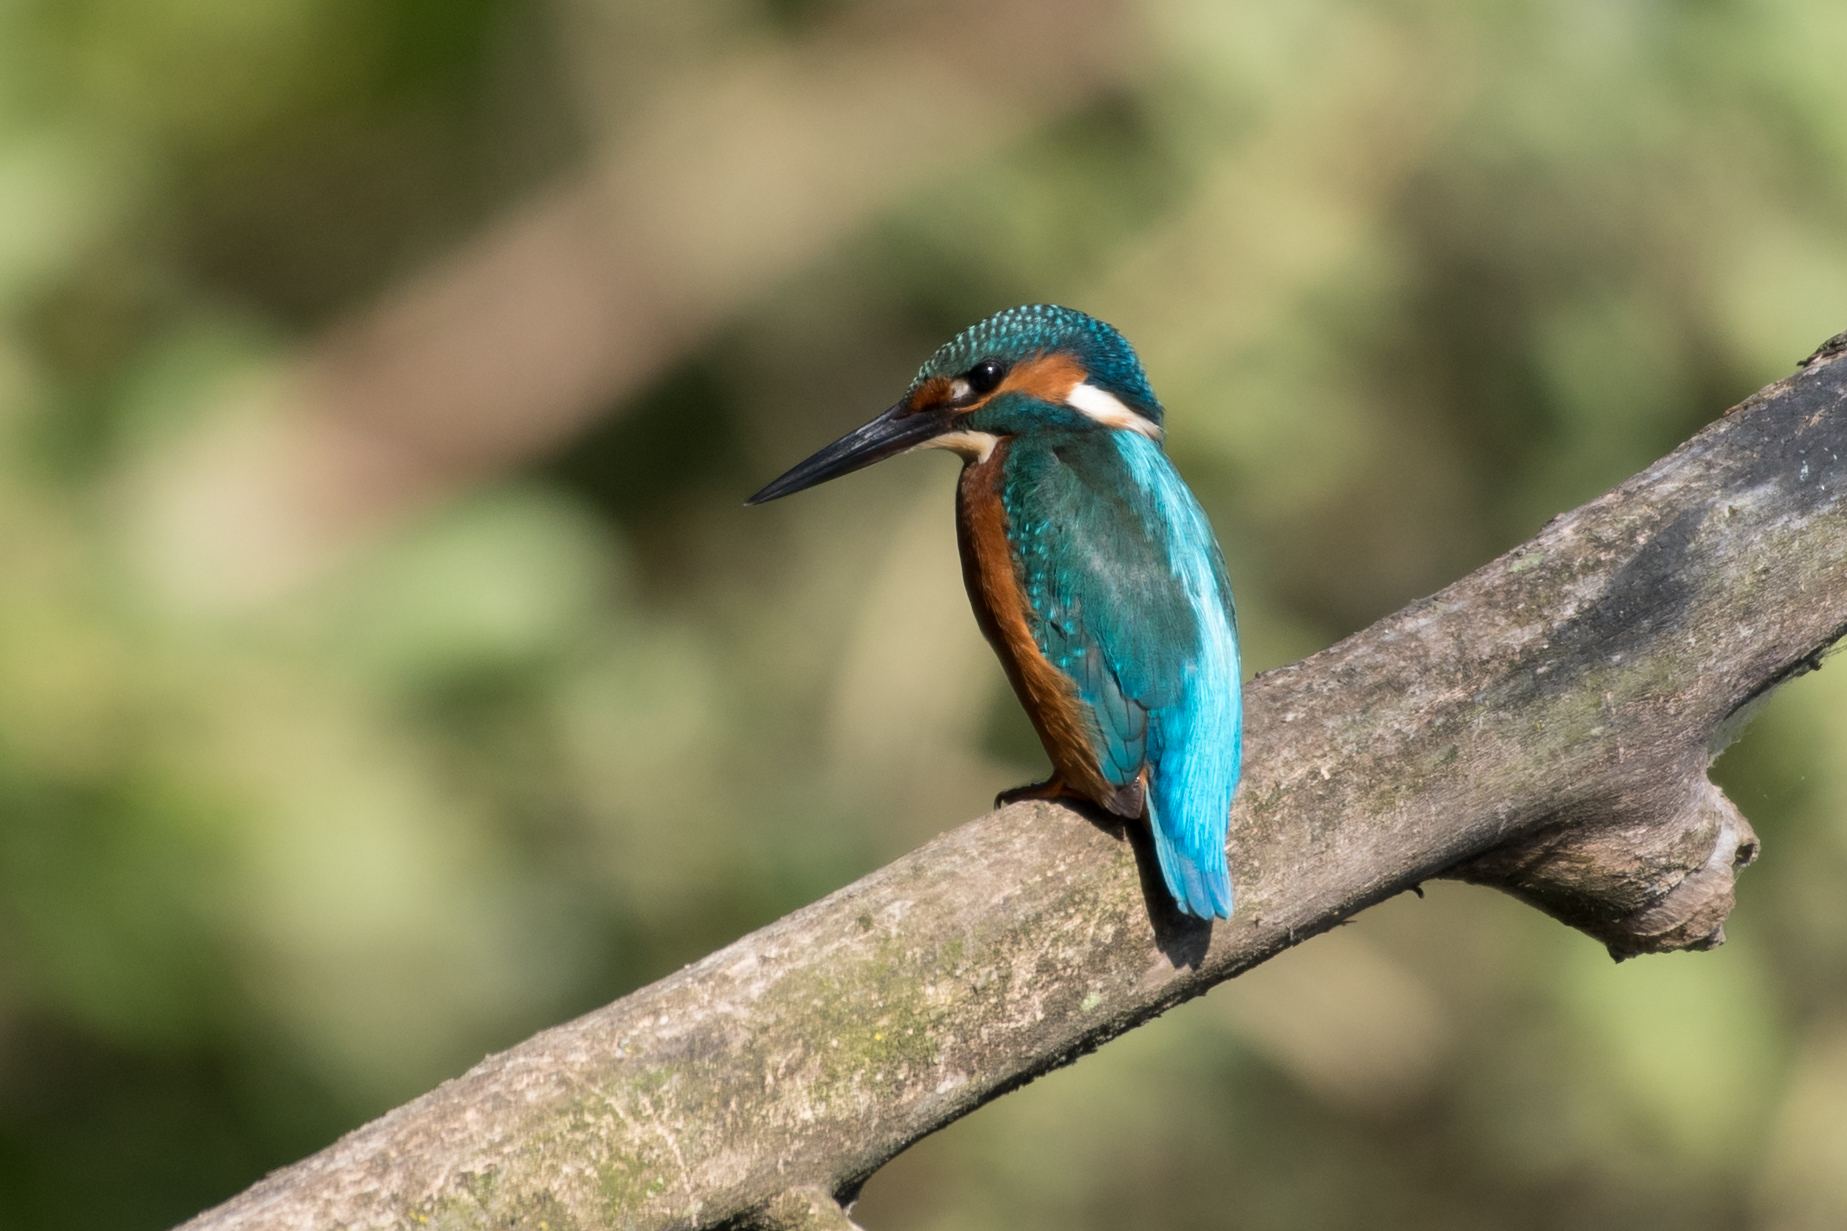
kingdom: Animalia
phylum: Chordata
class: Aves
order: Coraciiformes
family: Alcedinidae
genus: Alcedo
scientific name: Alcedo atthis
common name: Common kingfisher
